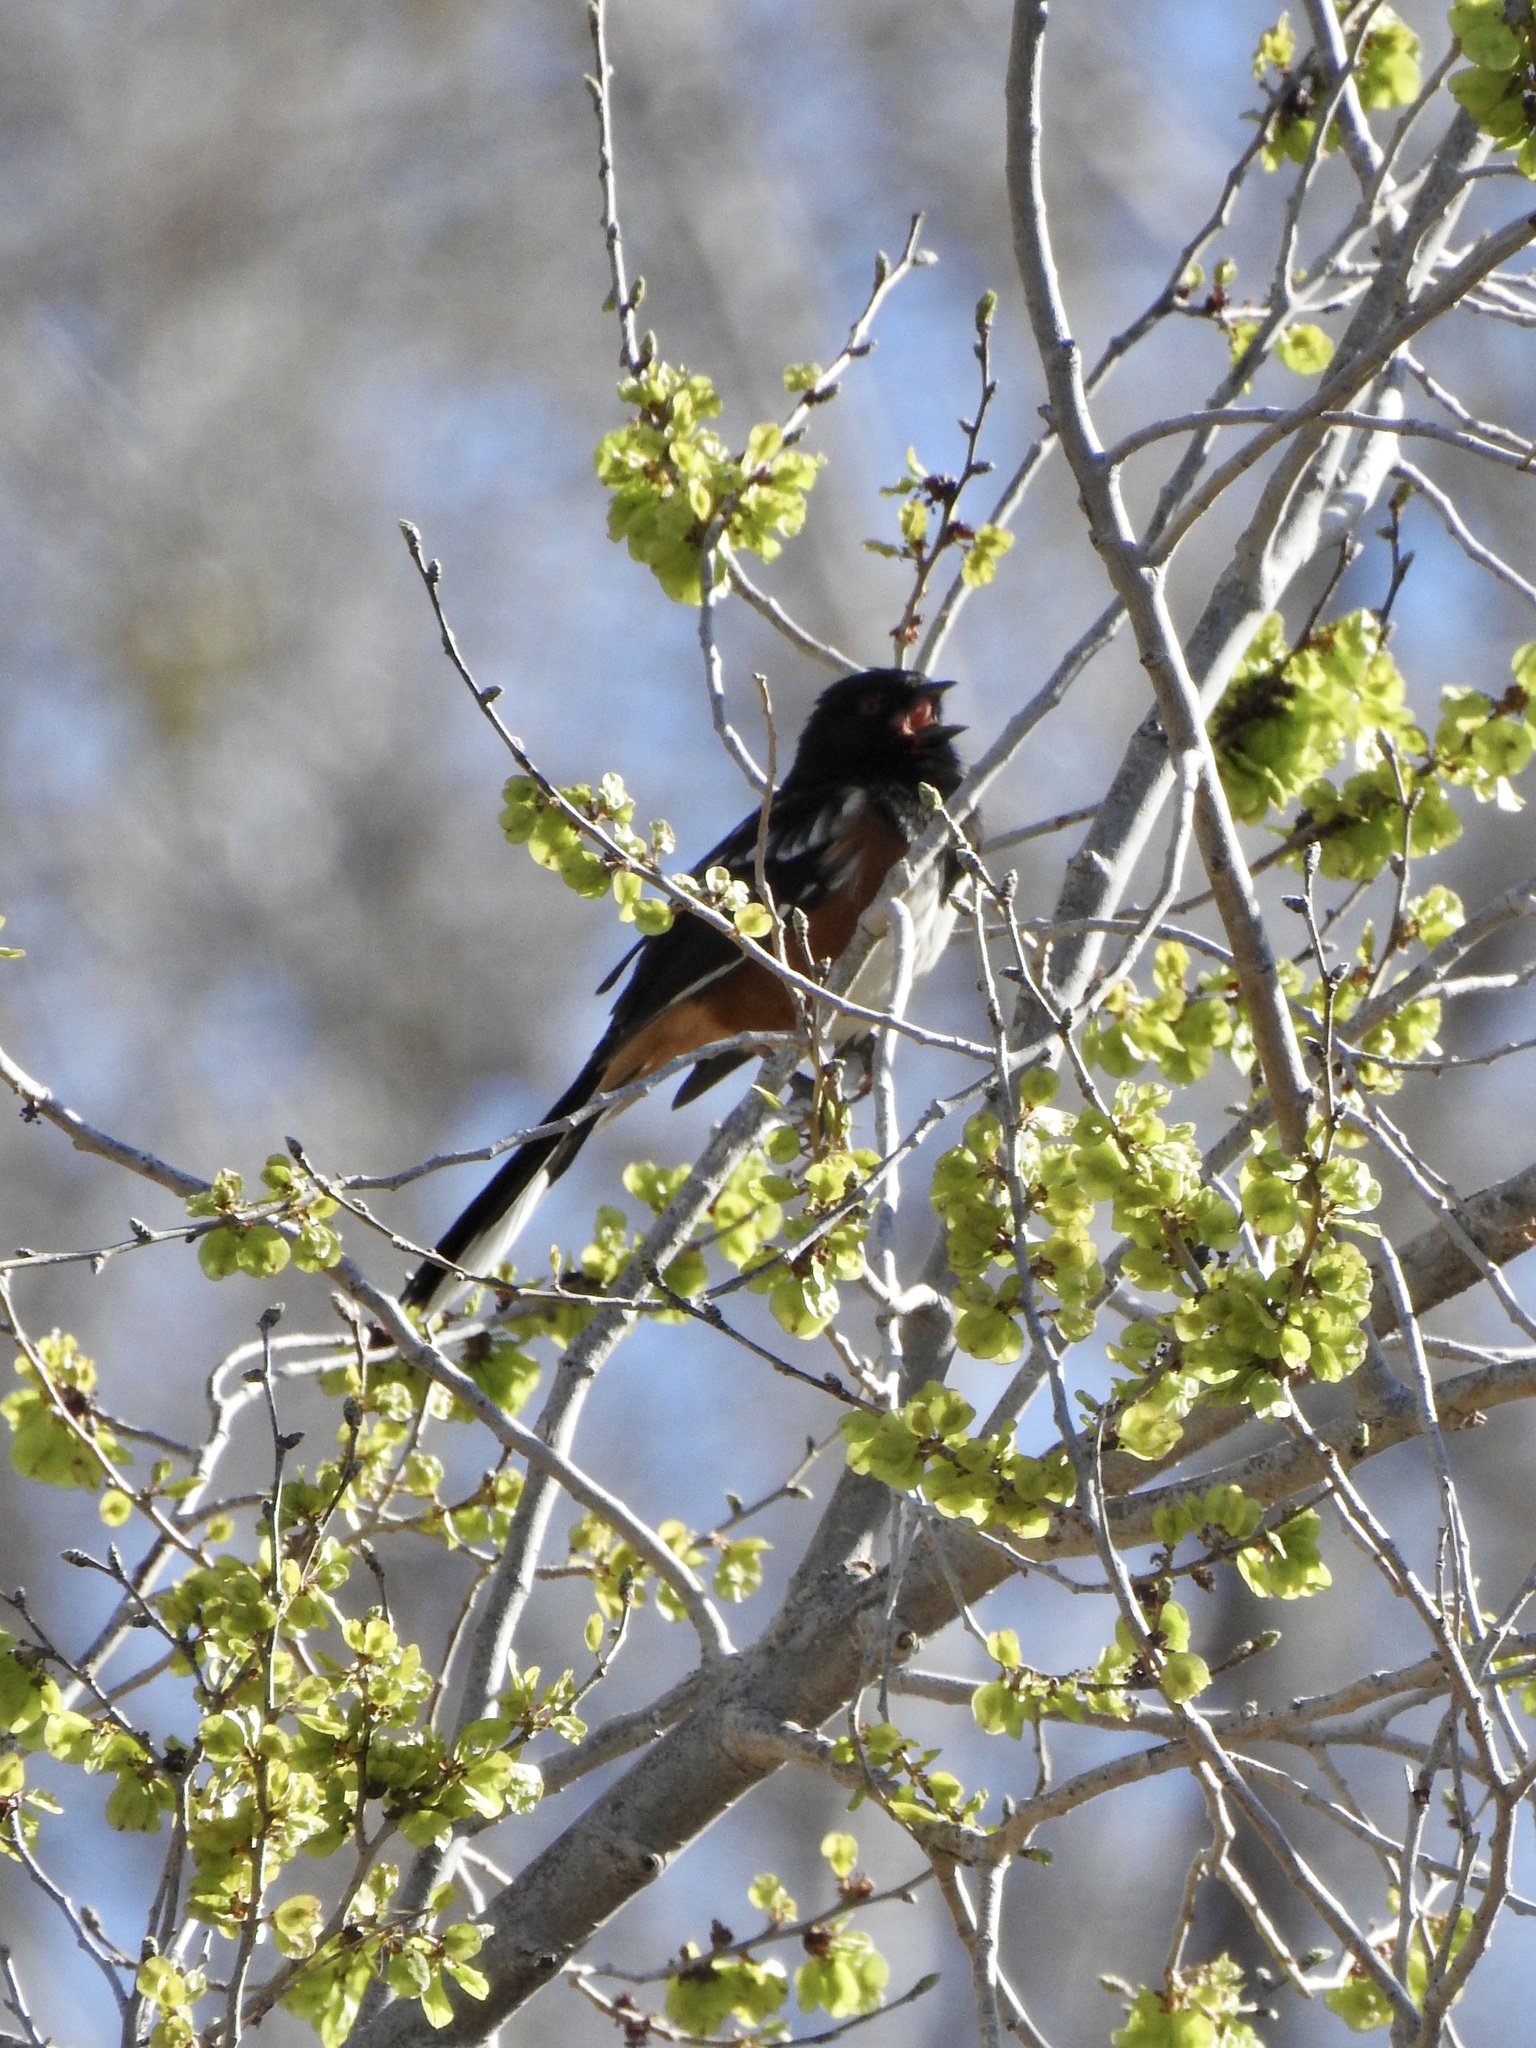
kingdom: Animalia
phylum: Chordata
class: Aves
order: Passeriformes
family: Passerellidae
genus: Pipilo
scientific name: Pipilo maculatus
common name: Spotted towhee
